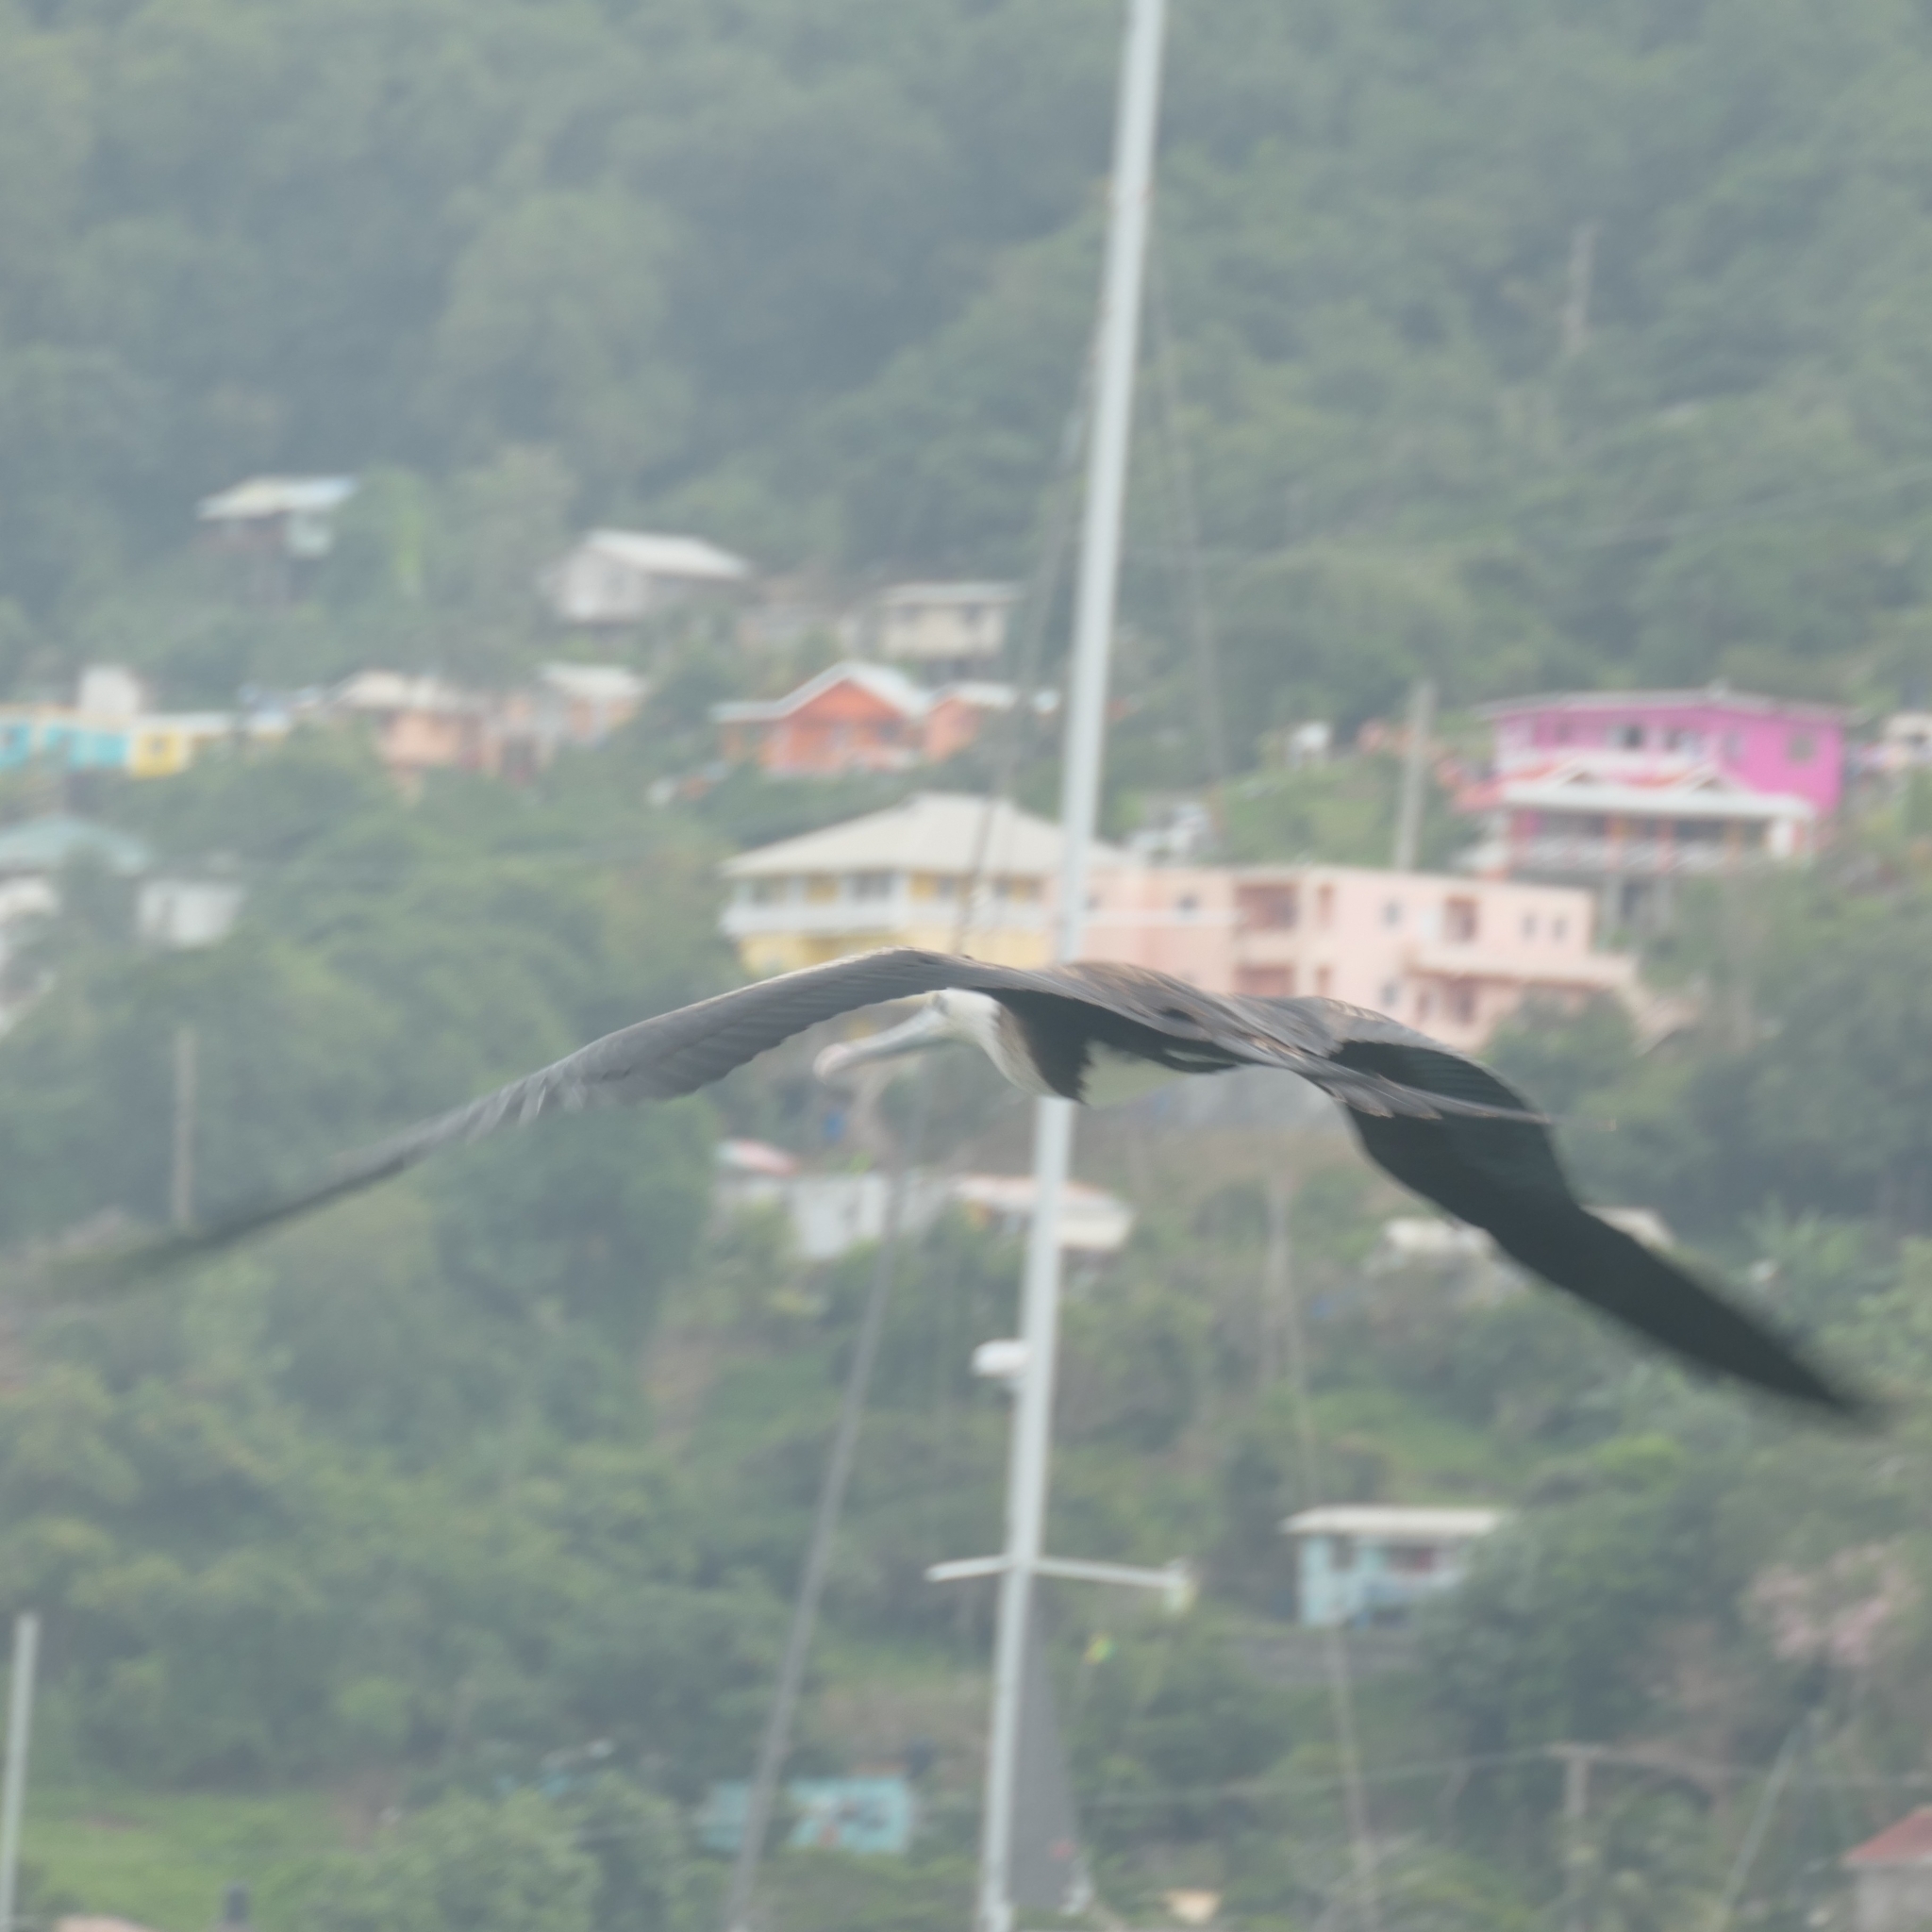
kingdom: Animalia
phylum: Chordata
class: Aves
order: Suliformes
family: Fregatidae
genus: Fregata
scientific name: Fregata magnificens
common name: Magnificent frigatebird
